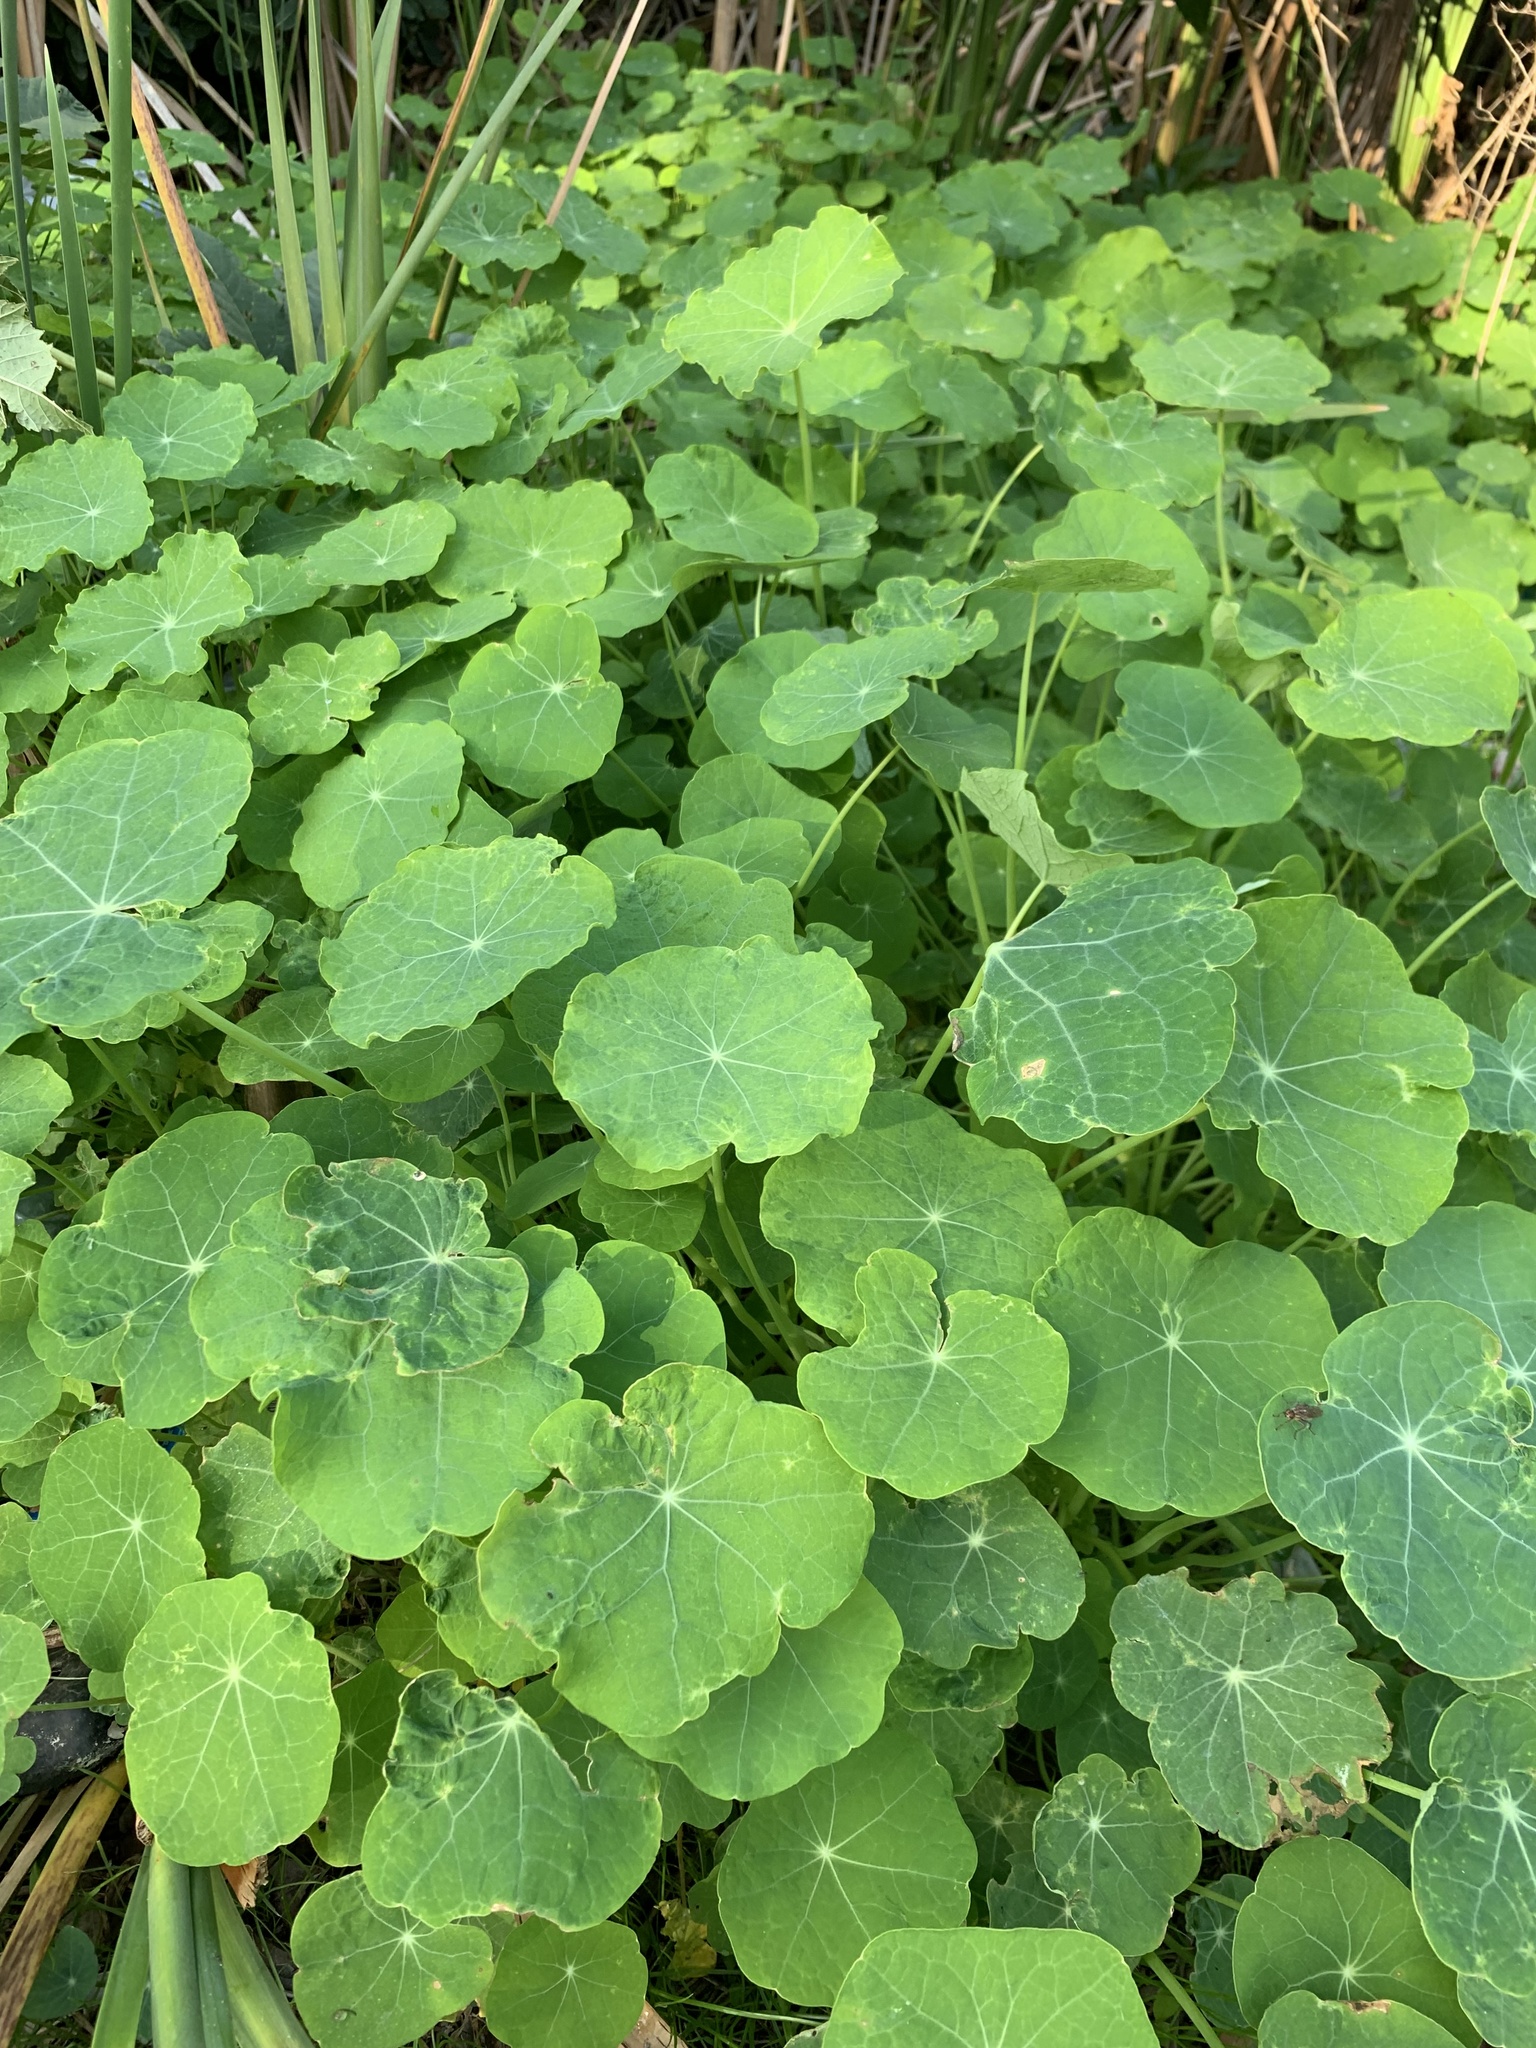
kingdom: Plantae
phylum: Tracheophyta
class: Magnoliopsida
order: Brassicales
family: Tropaeolaceae
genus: Tropaeolum
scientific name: Tropaeolum majus
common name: Nasturtium
